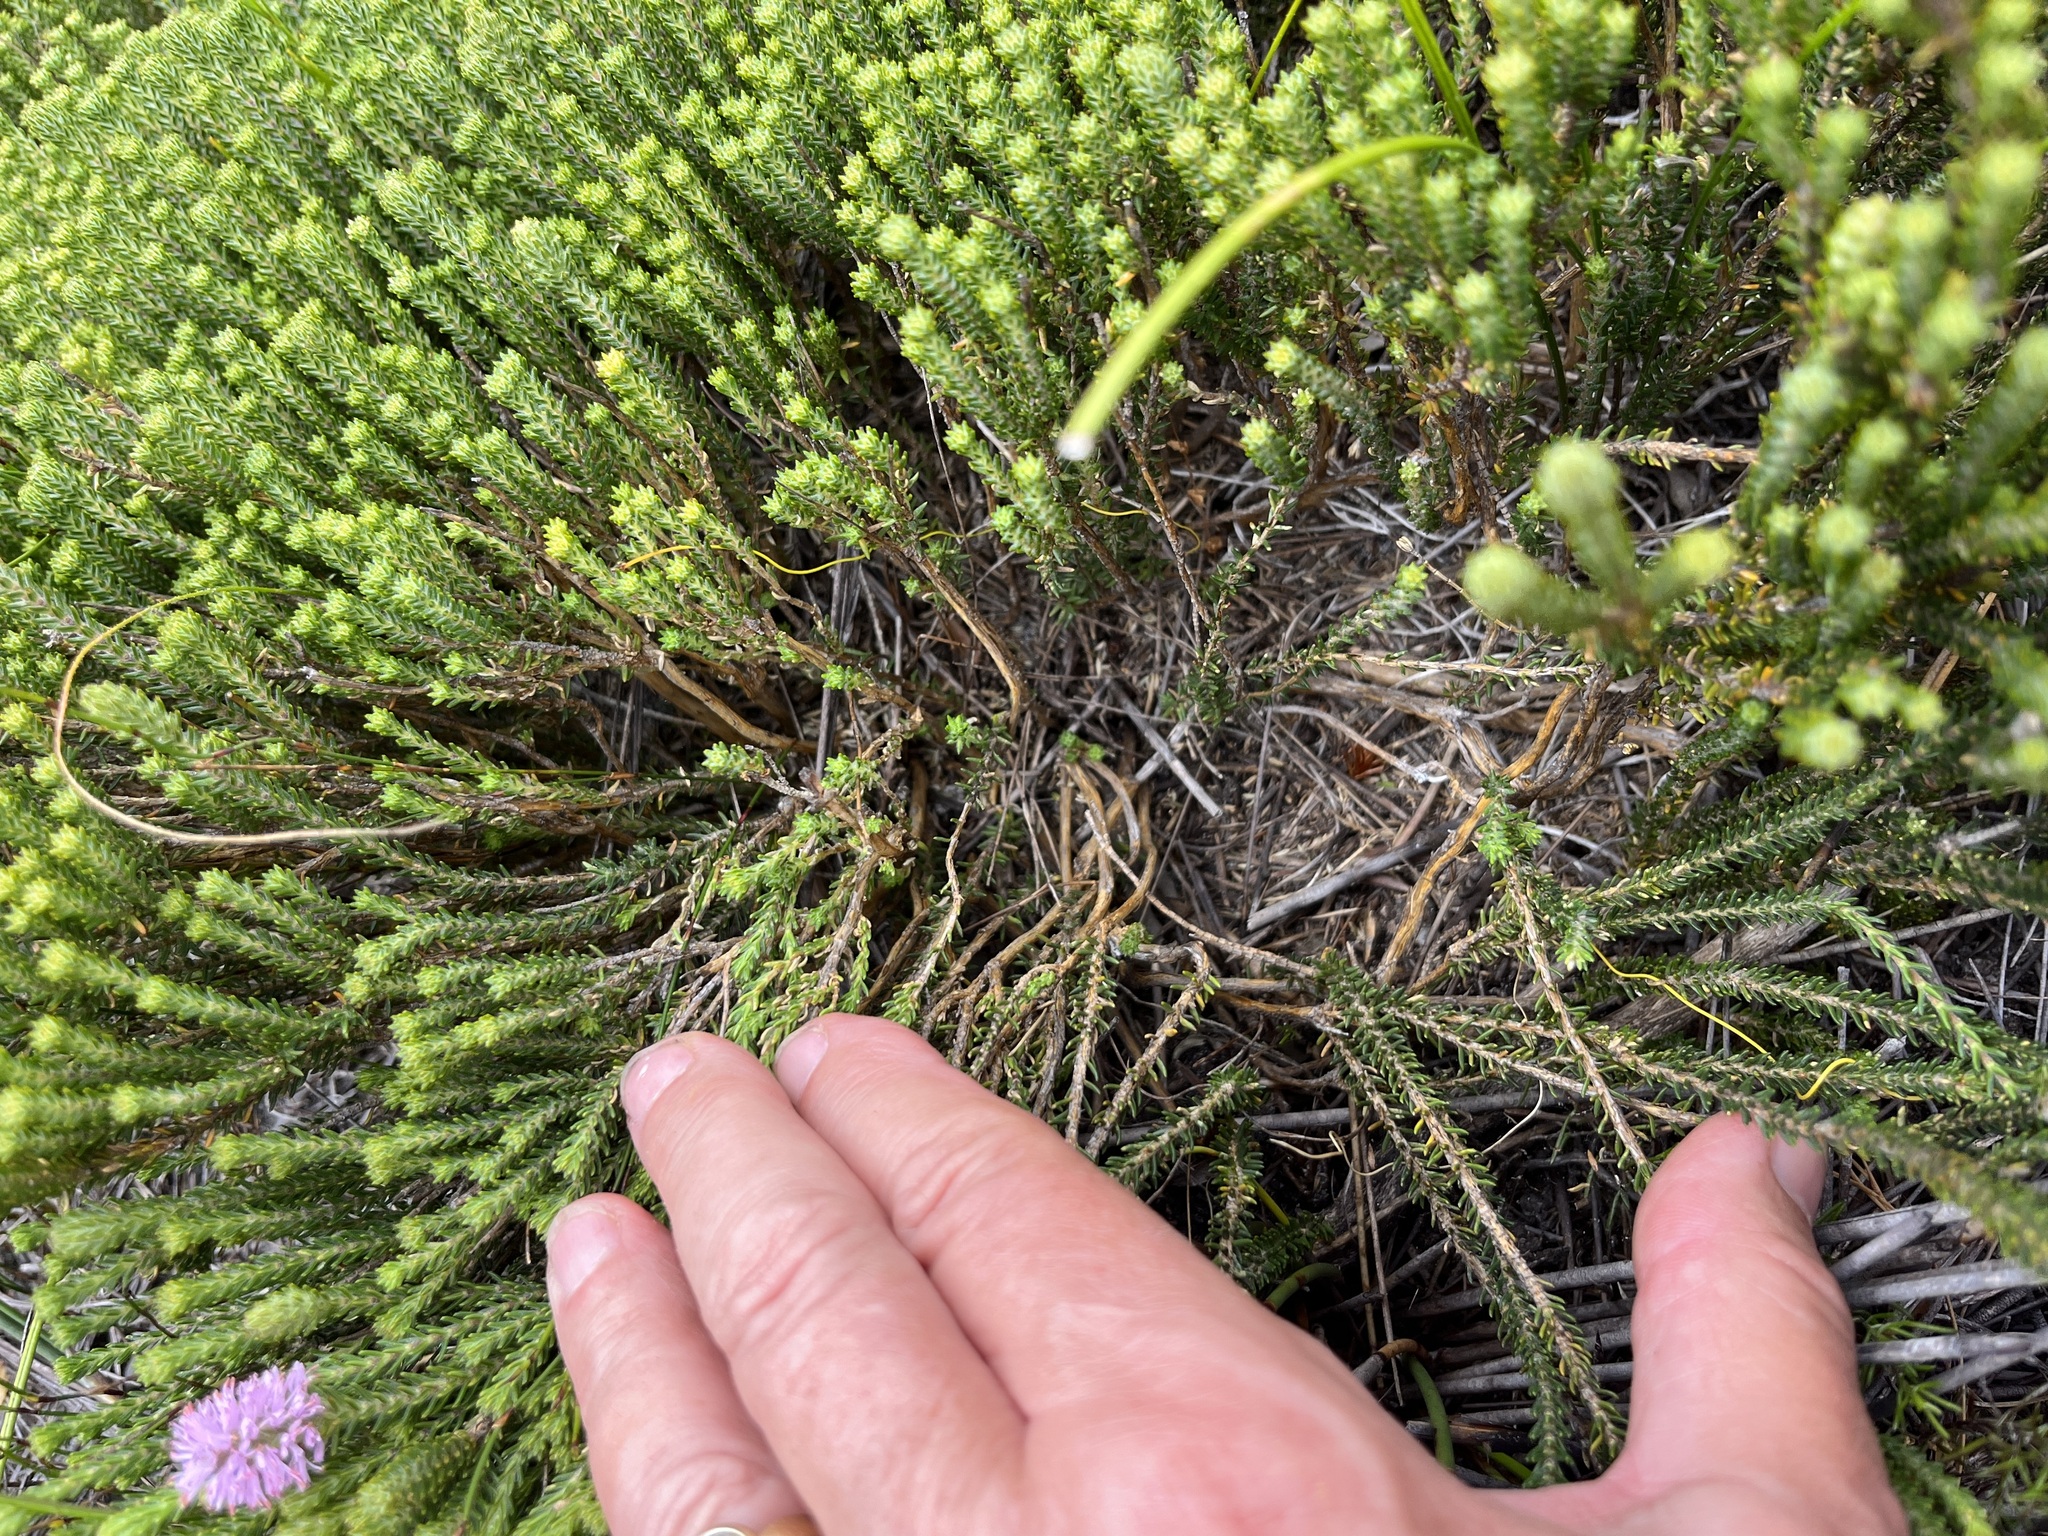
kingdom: Plantae
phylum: Tracheophyta
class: Magnoliopsida
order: Lamiales
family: Stilbaceae
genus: Stilbe
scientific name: Stilbe ericoides
